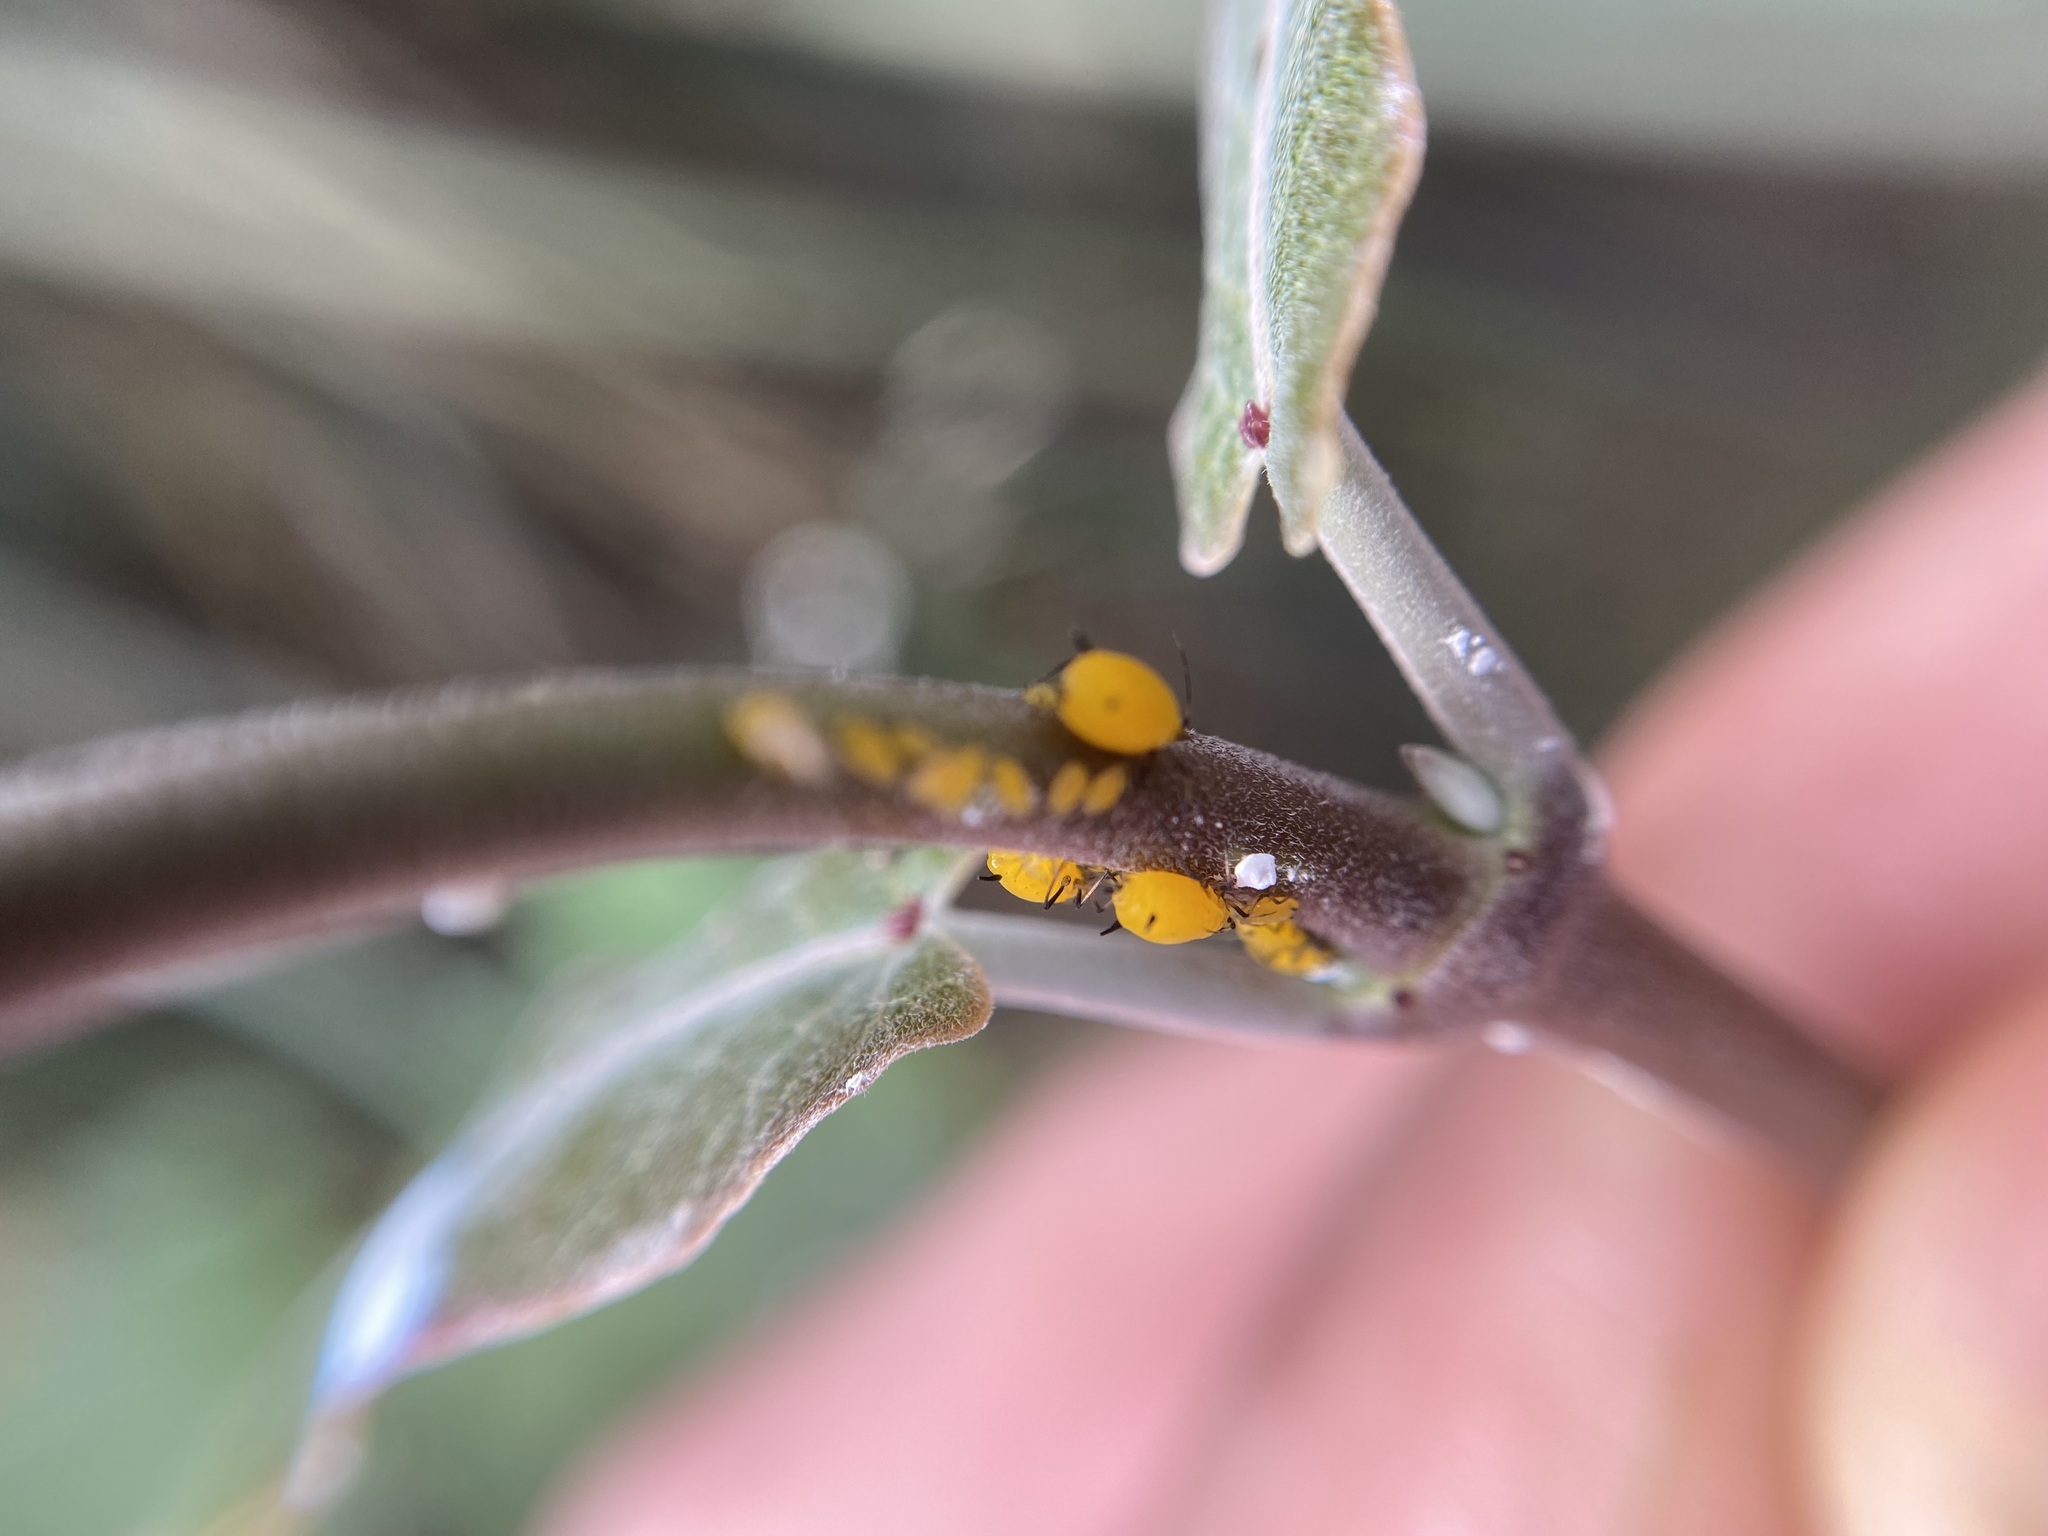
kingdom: Animalia
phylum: Arthropoda
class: Insecta
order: Hemiptera
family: Aphididae
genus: Aphis
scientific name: Aphis nerii
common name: Oleander aphid
